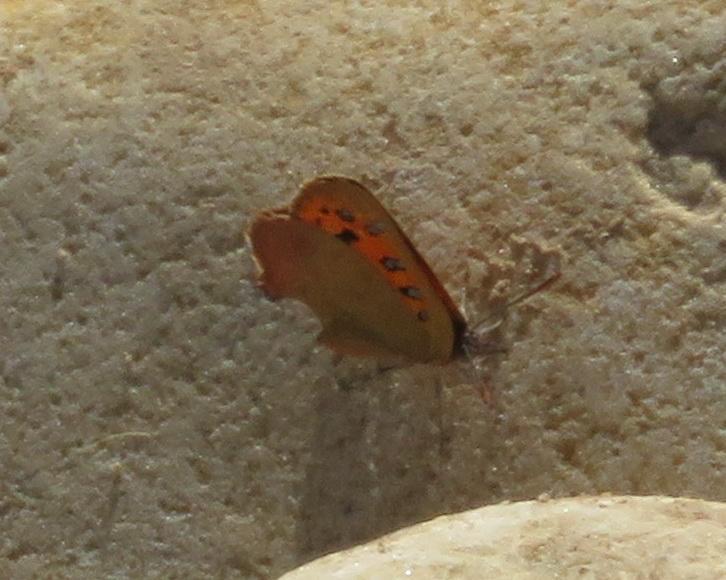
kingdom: Animalia
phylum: Arthropoda
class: Insecta
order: Lepidoptera
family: Lycaenidae
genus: Zeritis
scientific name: Zeritis chrysaor
